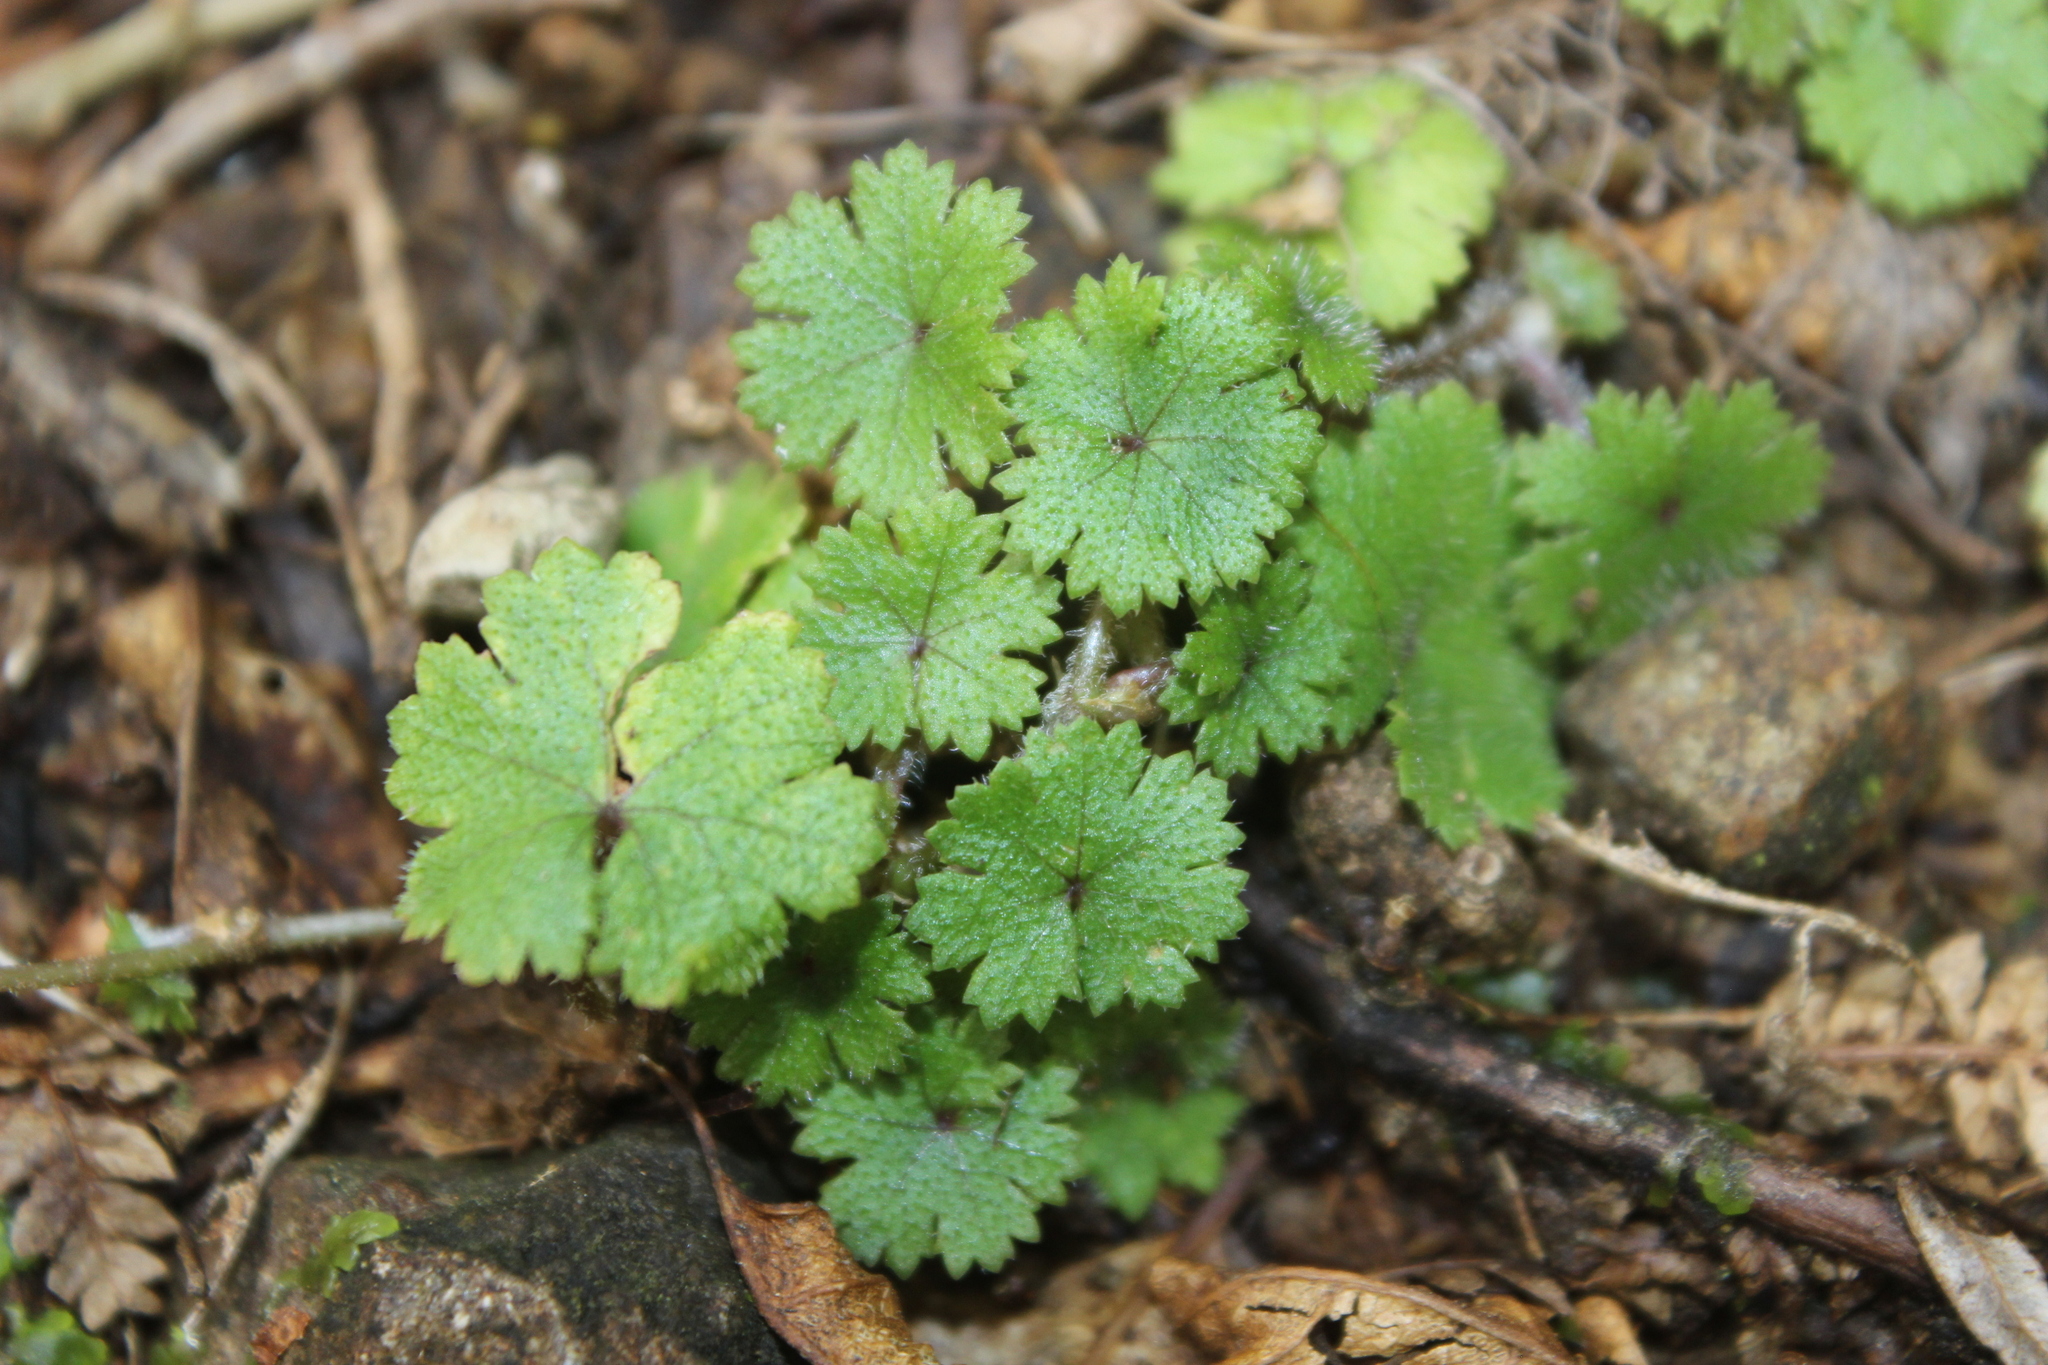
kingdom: Plantae
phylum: Tracheophyta
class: Magnoliopsida
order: Apiales
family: Araliaceae
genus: Hydrocotyle
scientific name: Hydrocotyle moschata
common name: Hairy pennywort
